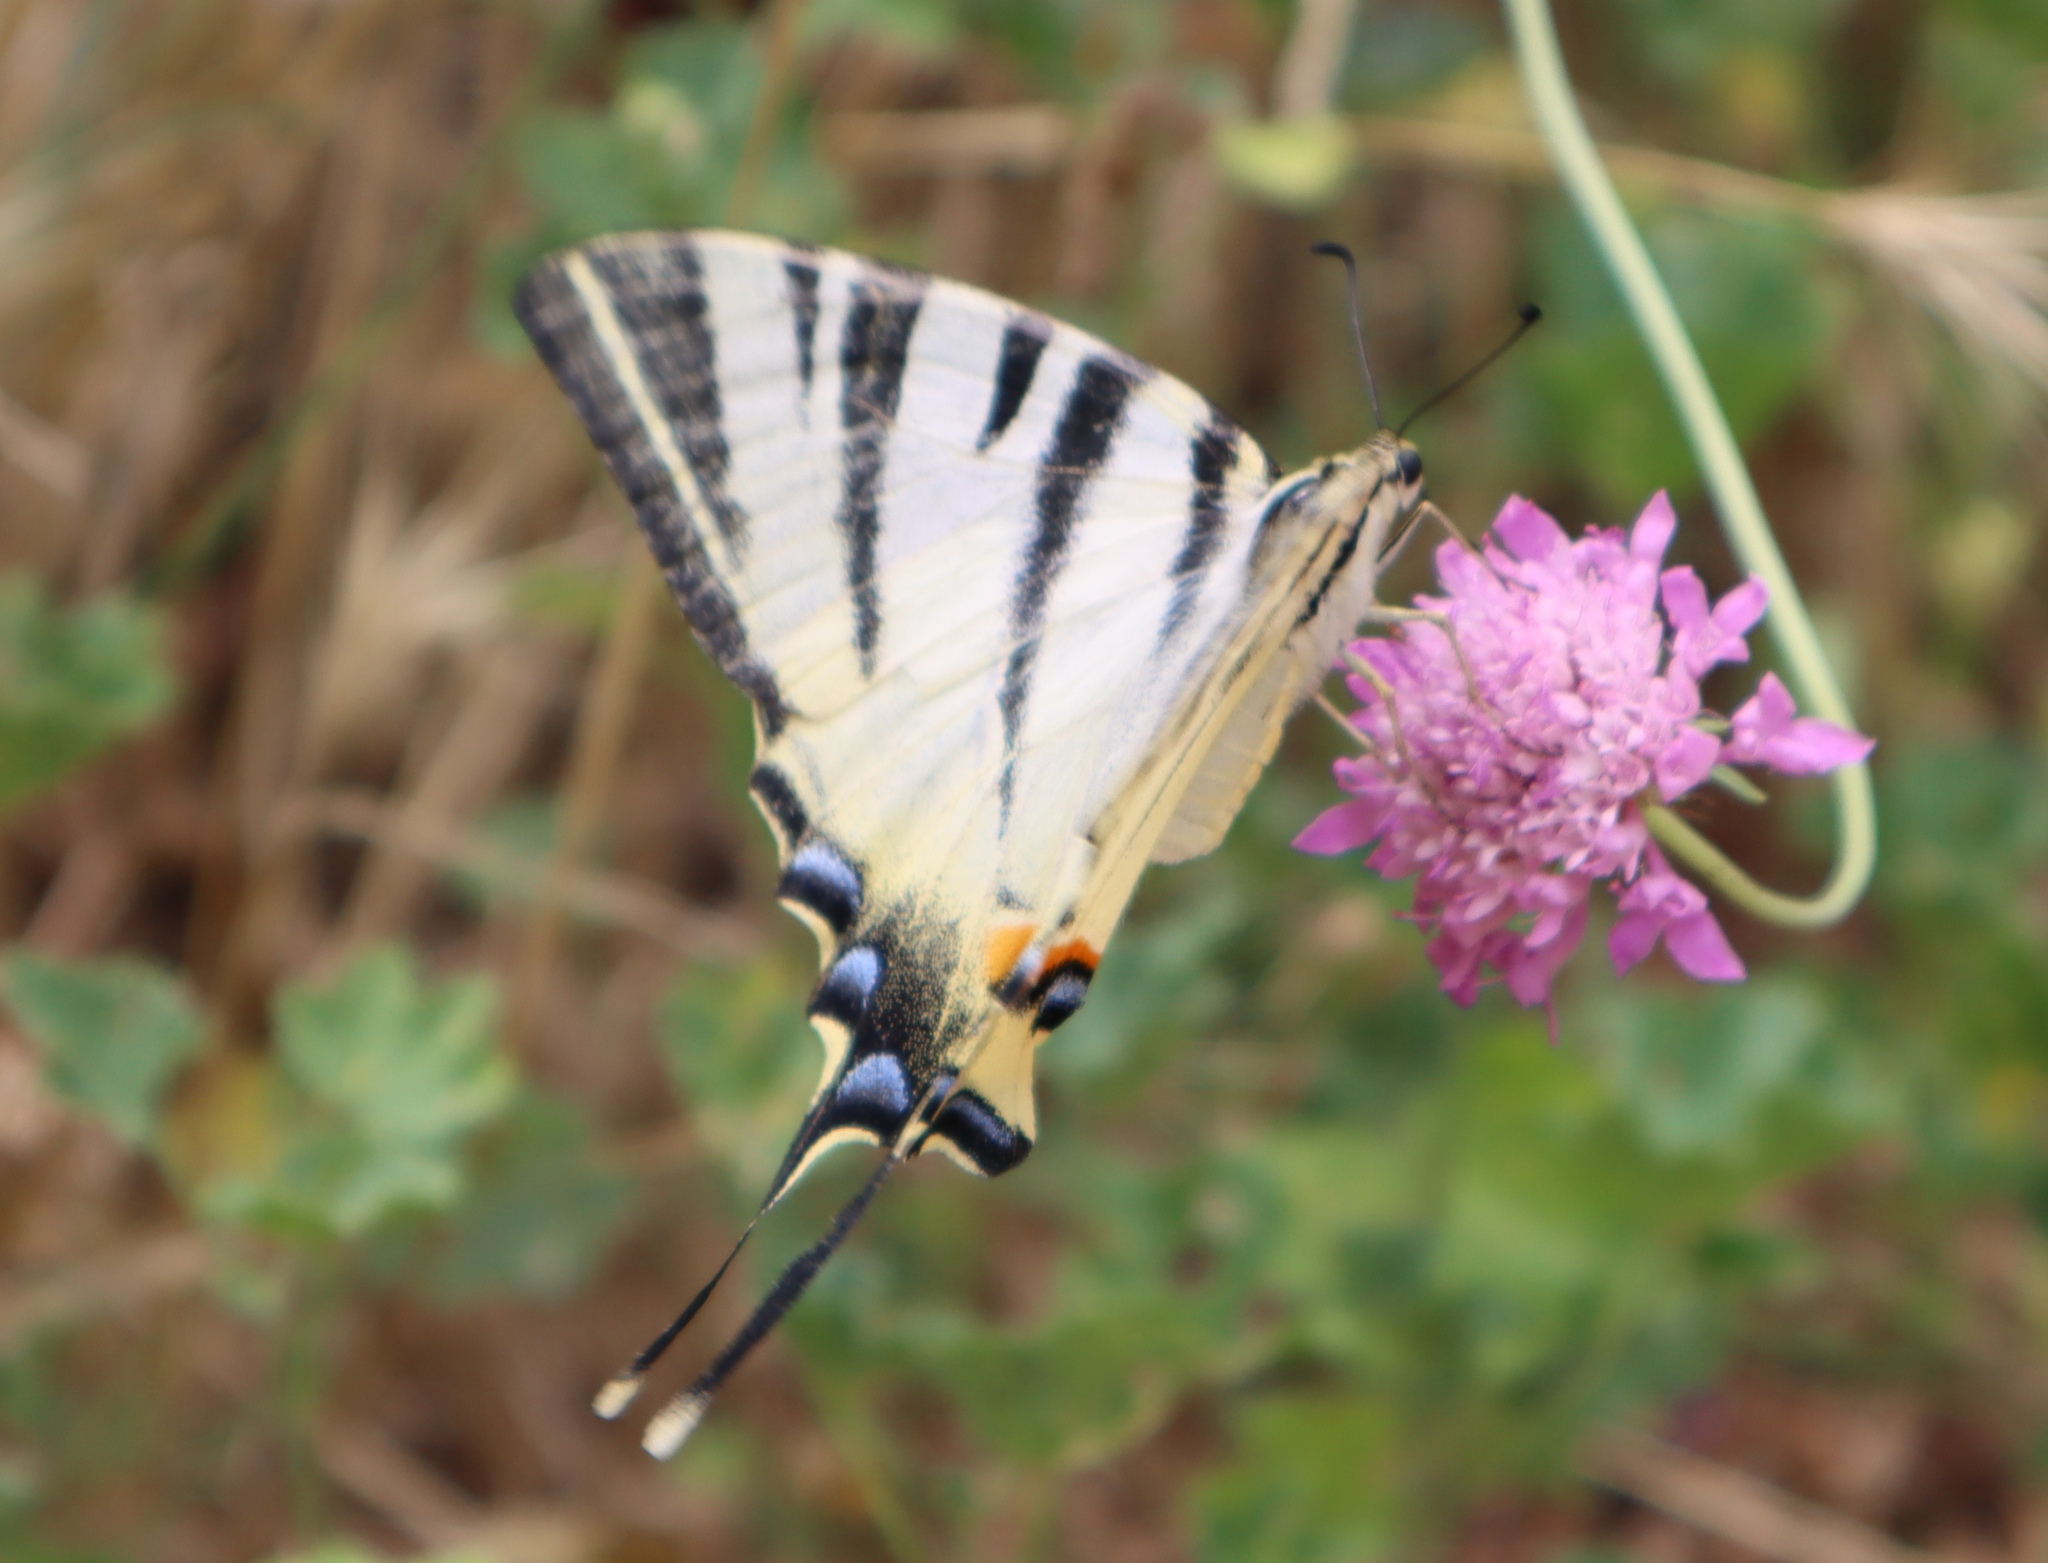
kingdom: Animalia
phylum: Arthropoda
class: Insecta
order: Lepidoptera
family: Papilionidae
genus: Iphiclides
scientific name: Iphiclides podalirius
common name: Scarce swallowtail
